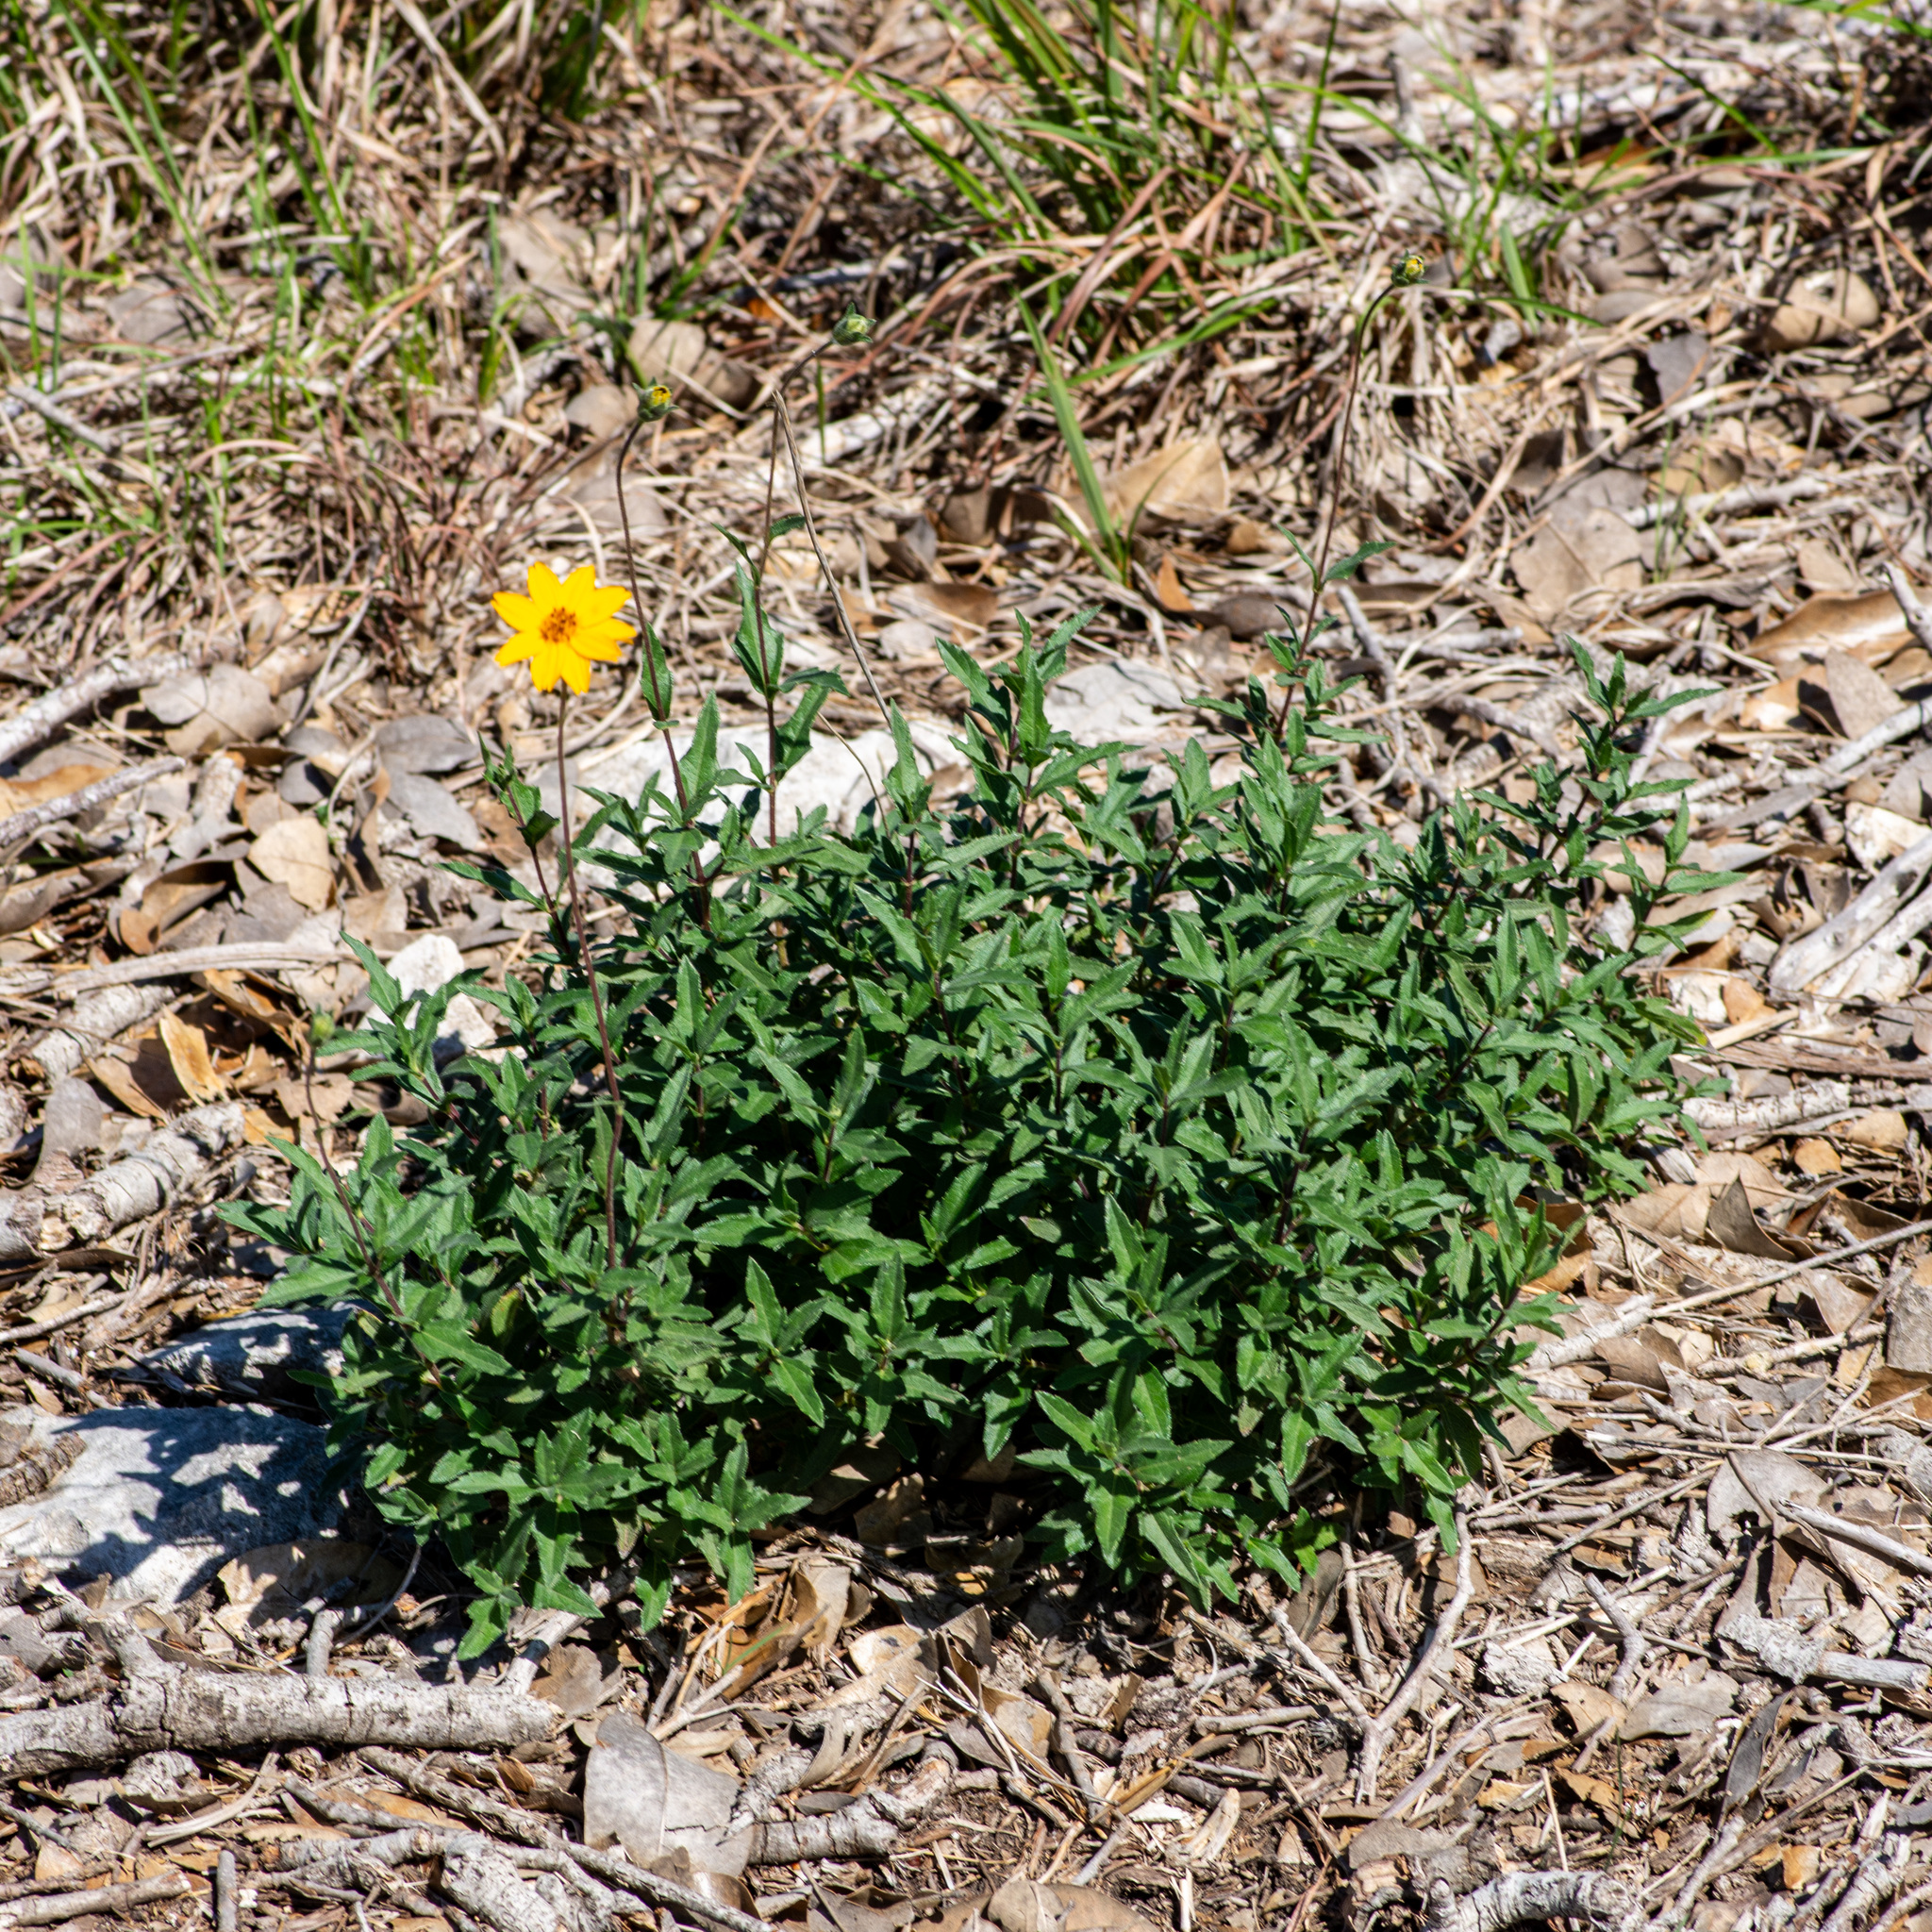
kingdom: Plantae
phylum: Tracheophyta
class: Magnoliopsida
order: Asterales
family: Asteraceae
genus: Wedelia
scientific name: Wedelia acapulcensis
